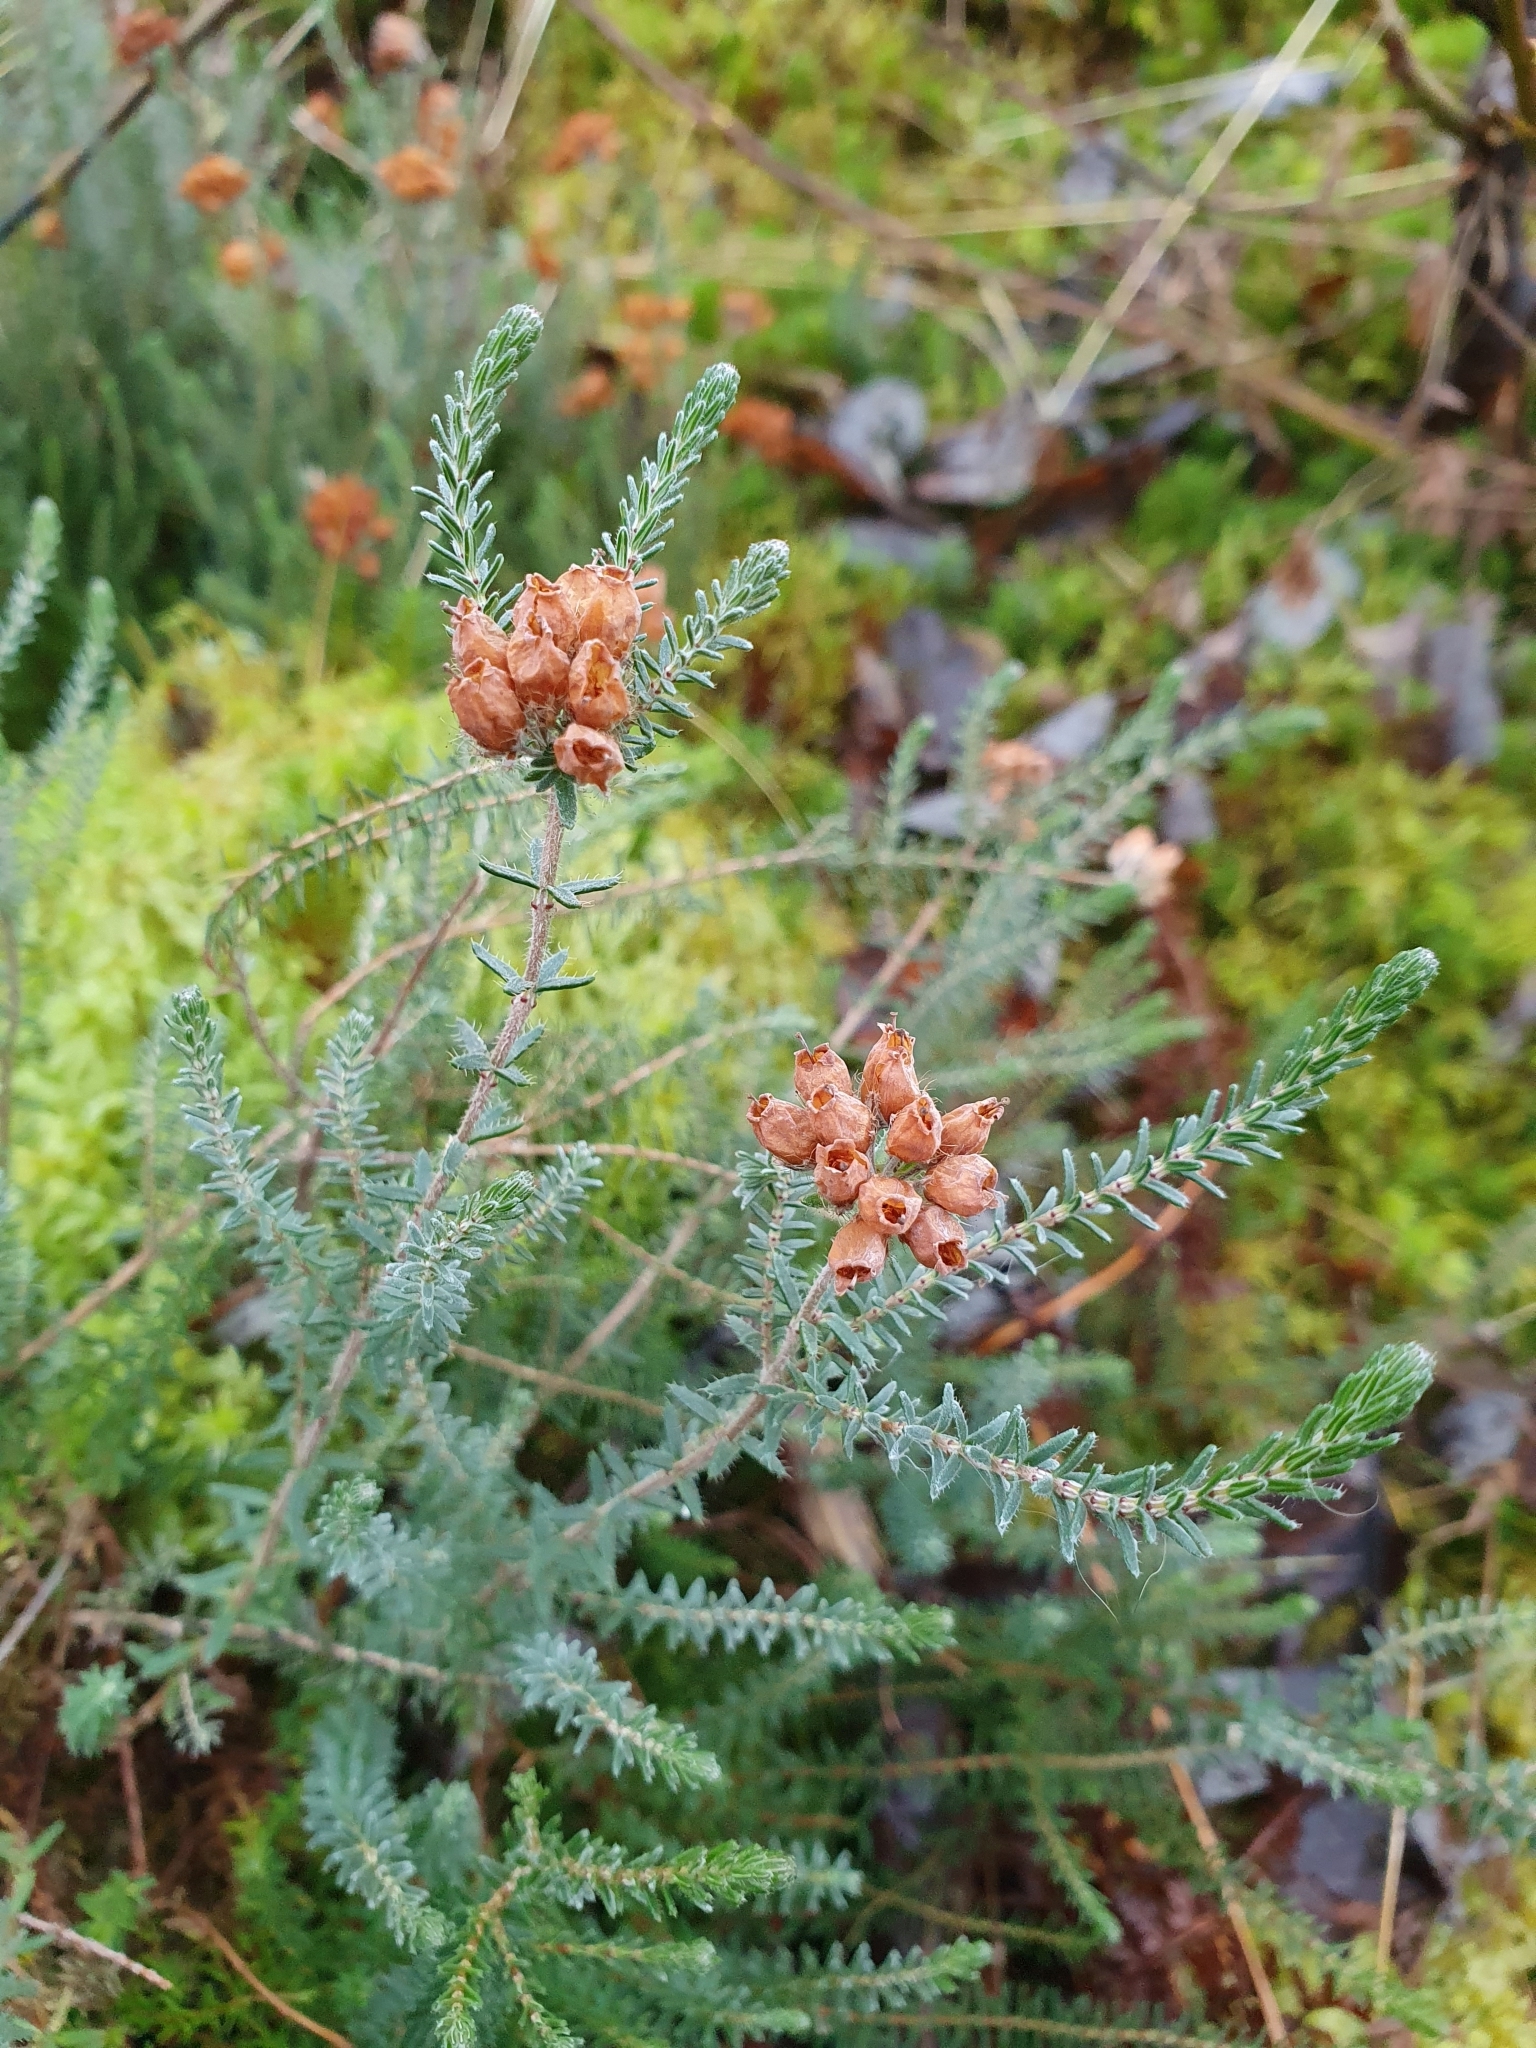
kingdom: Plantae
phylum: Tracheophyta
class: Magnoliopsida
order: Ericales
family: Ericaceae
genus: Erica
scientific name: Erica tetralix
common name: Cross-leaved heath
